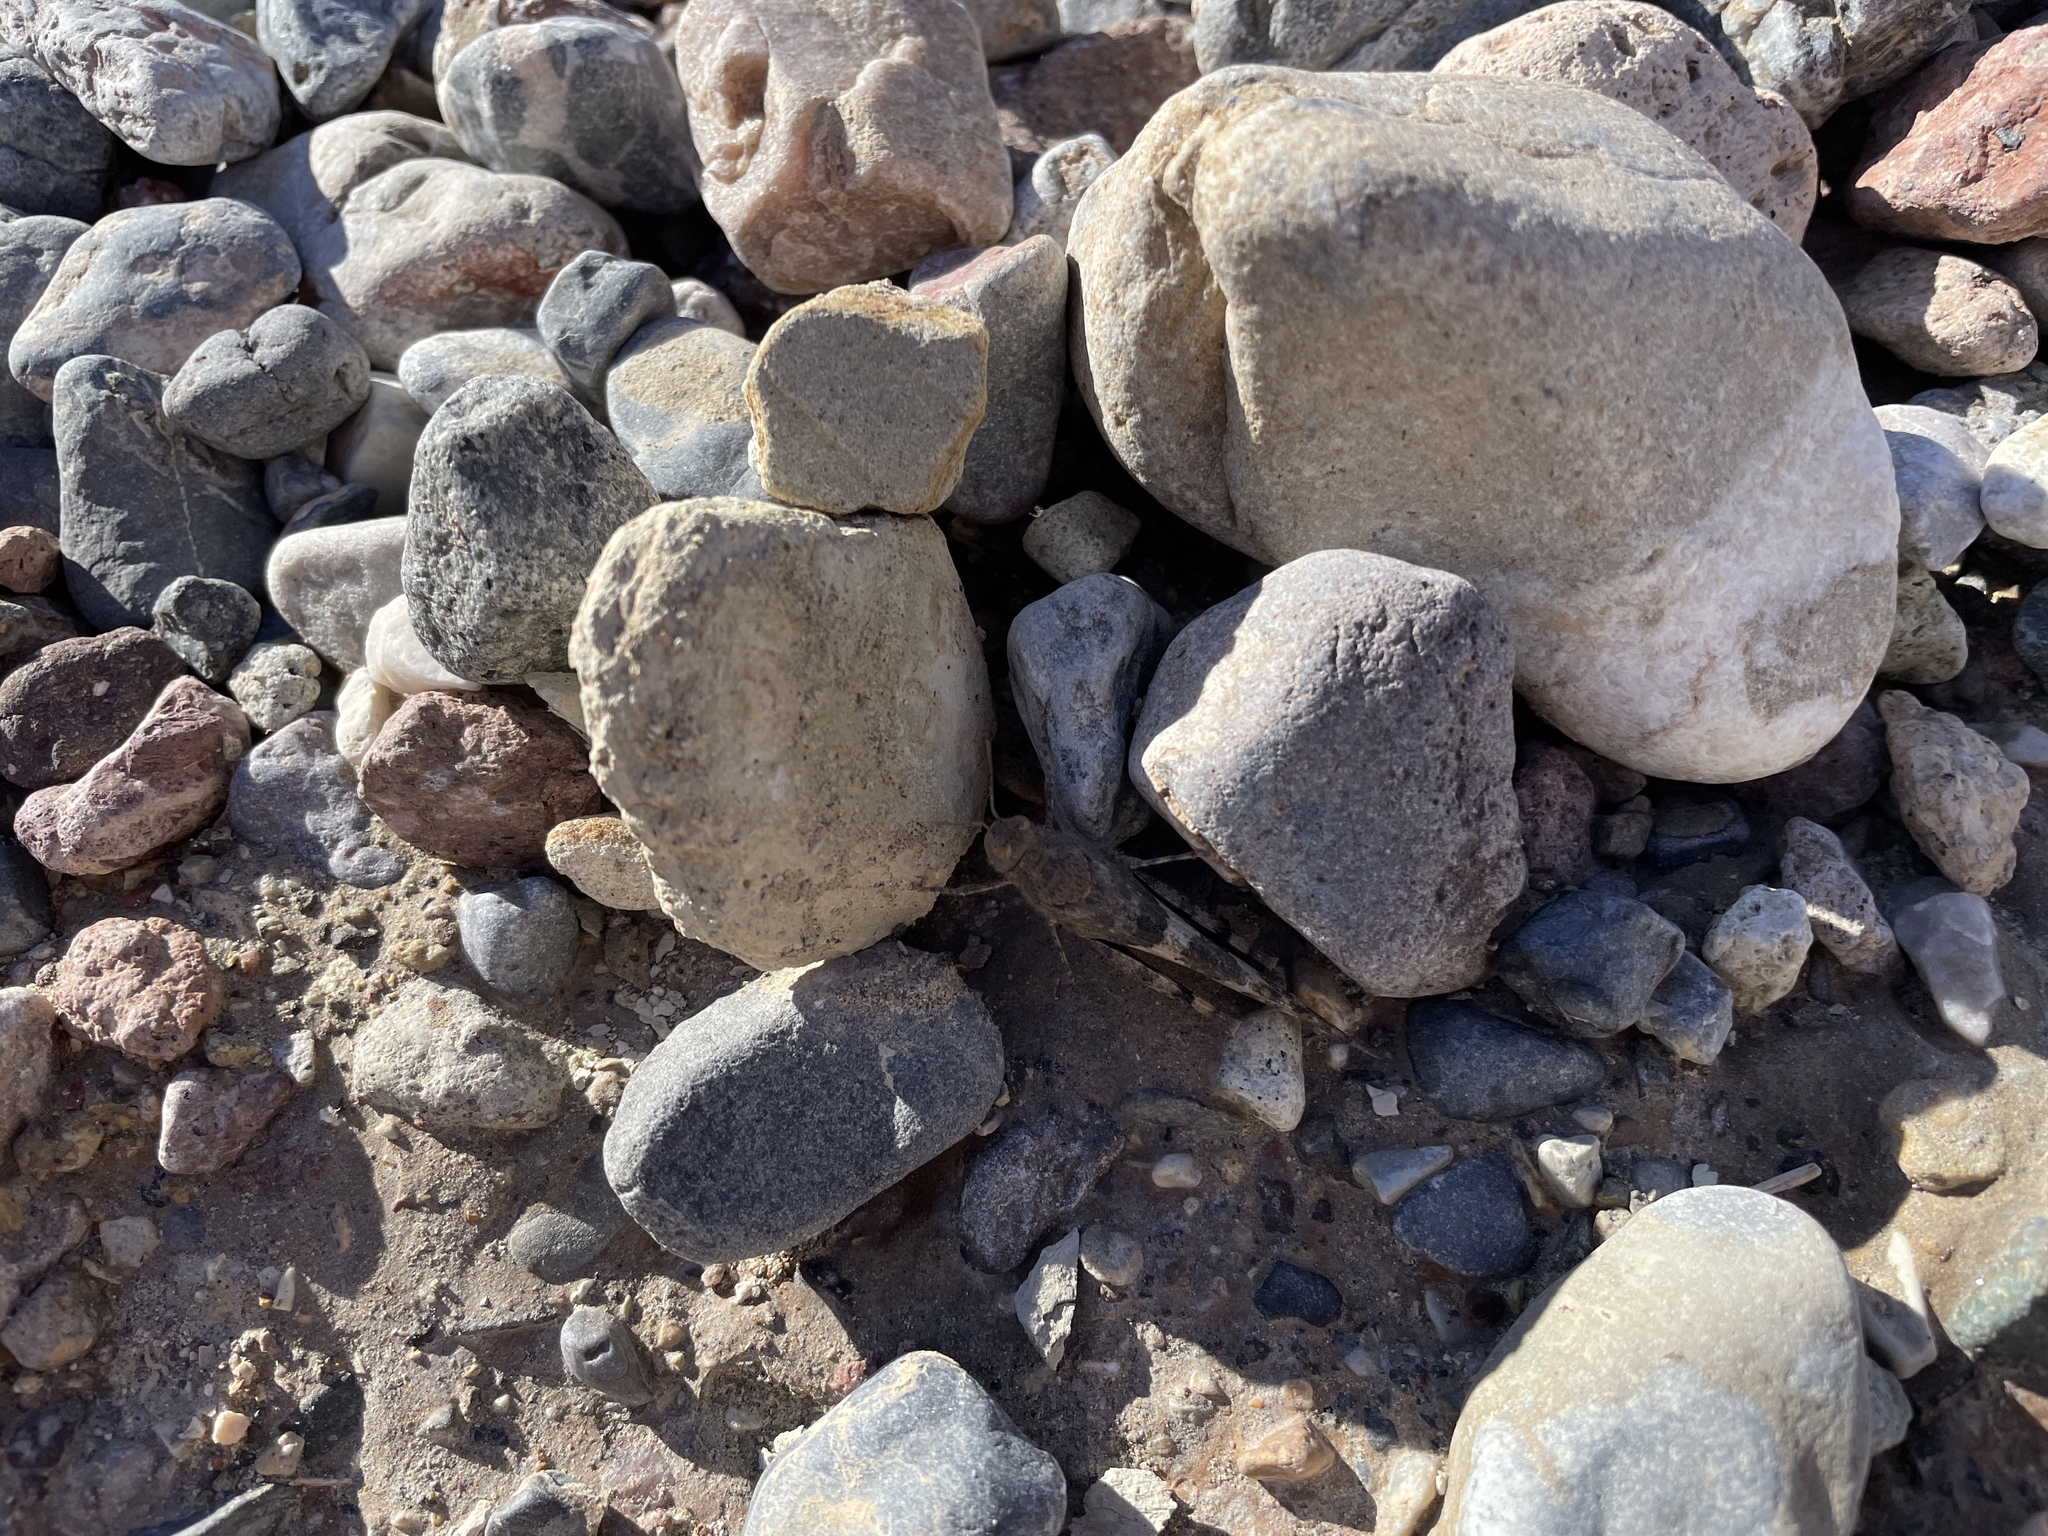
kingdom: Animalia
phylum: Arthropoda
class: Insecta
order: Orthoptera
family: Acrididae
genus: Trimerotropis
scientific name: Trimerotropis pallidipennis
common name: Pallid-winged grasshopper
